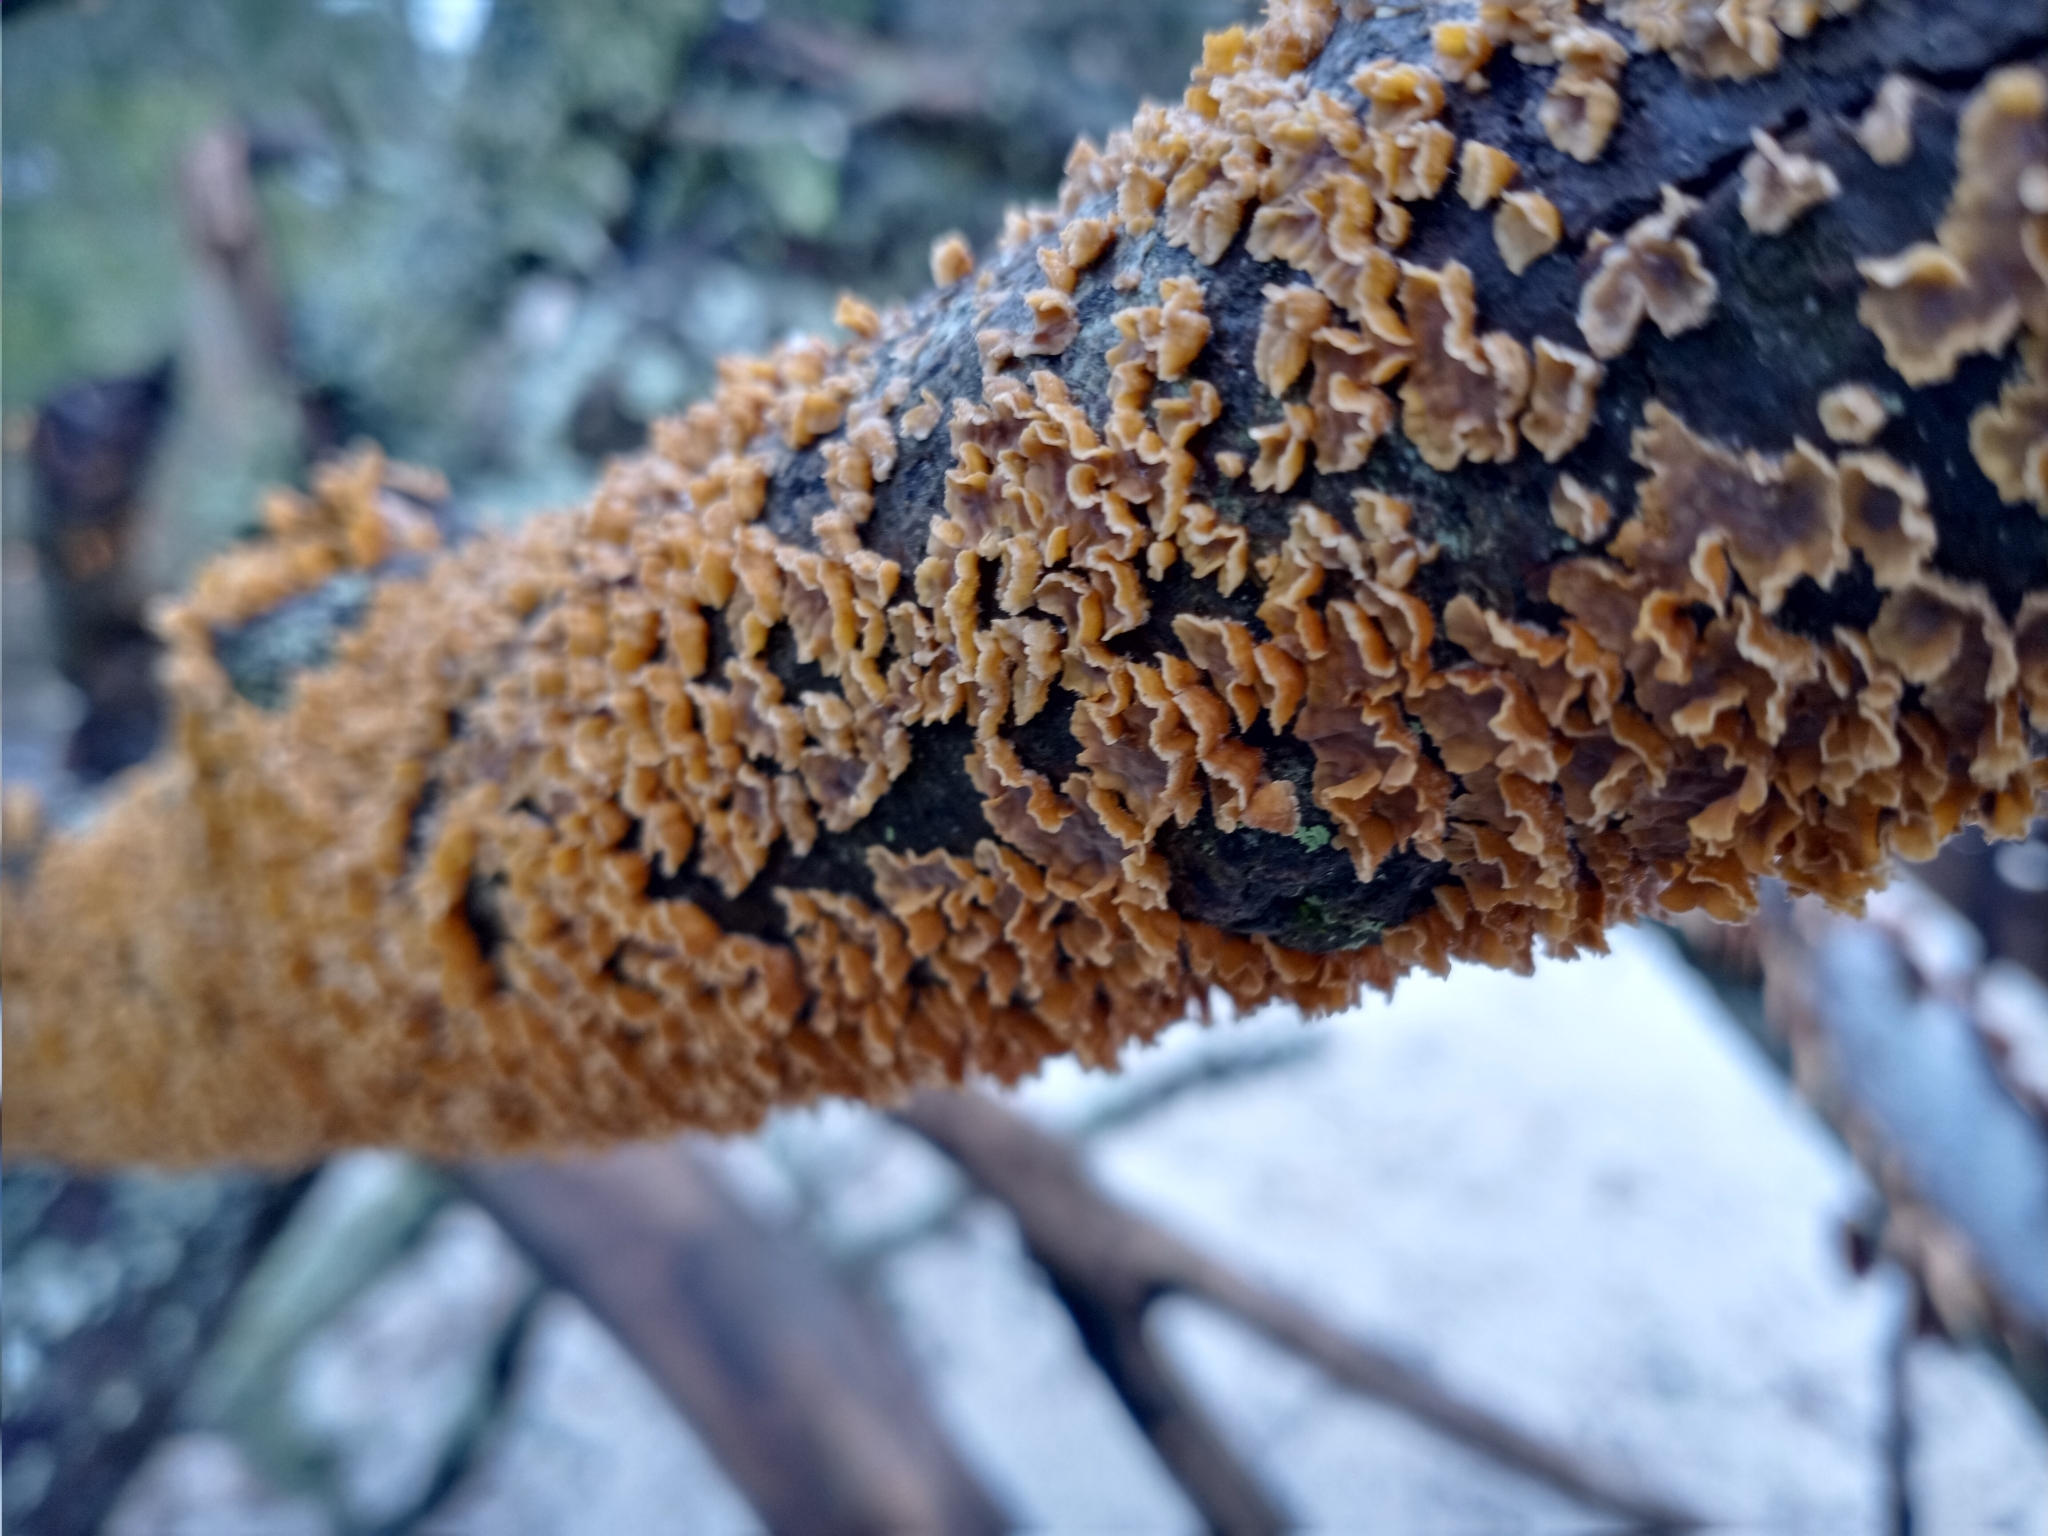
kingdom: Fungi
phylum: Basidiomycota
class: Agaricomycetes
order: Russulales
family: Stereaceae
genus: Stereum
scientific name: Stereum complicatum
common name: Crowded parchment
